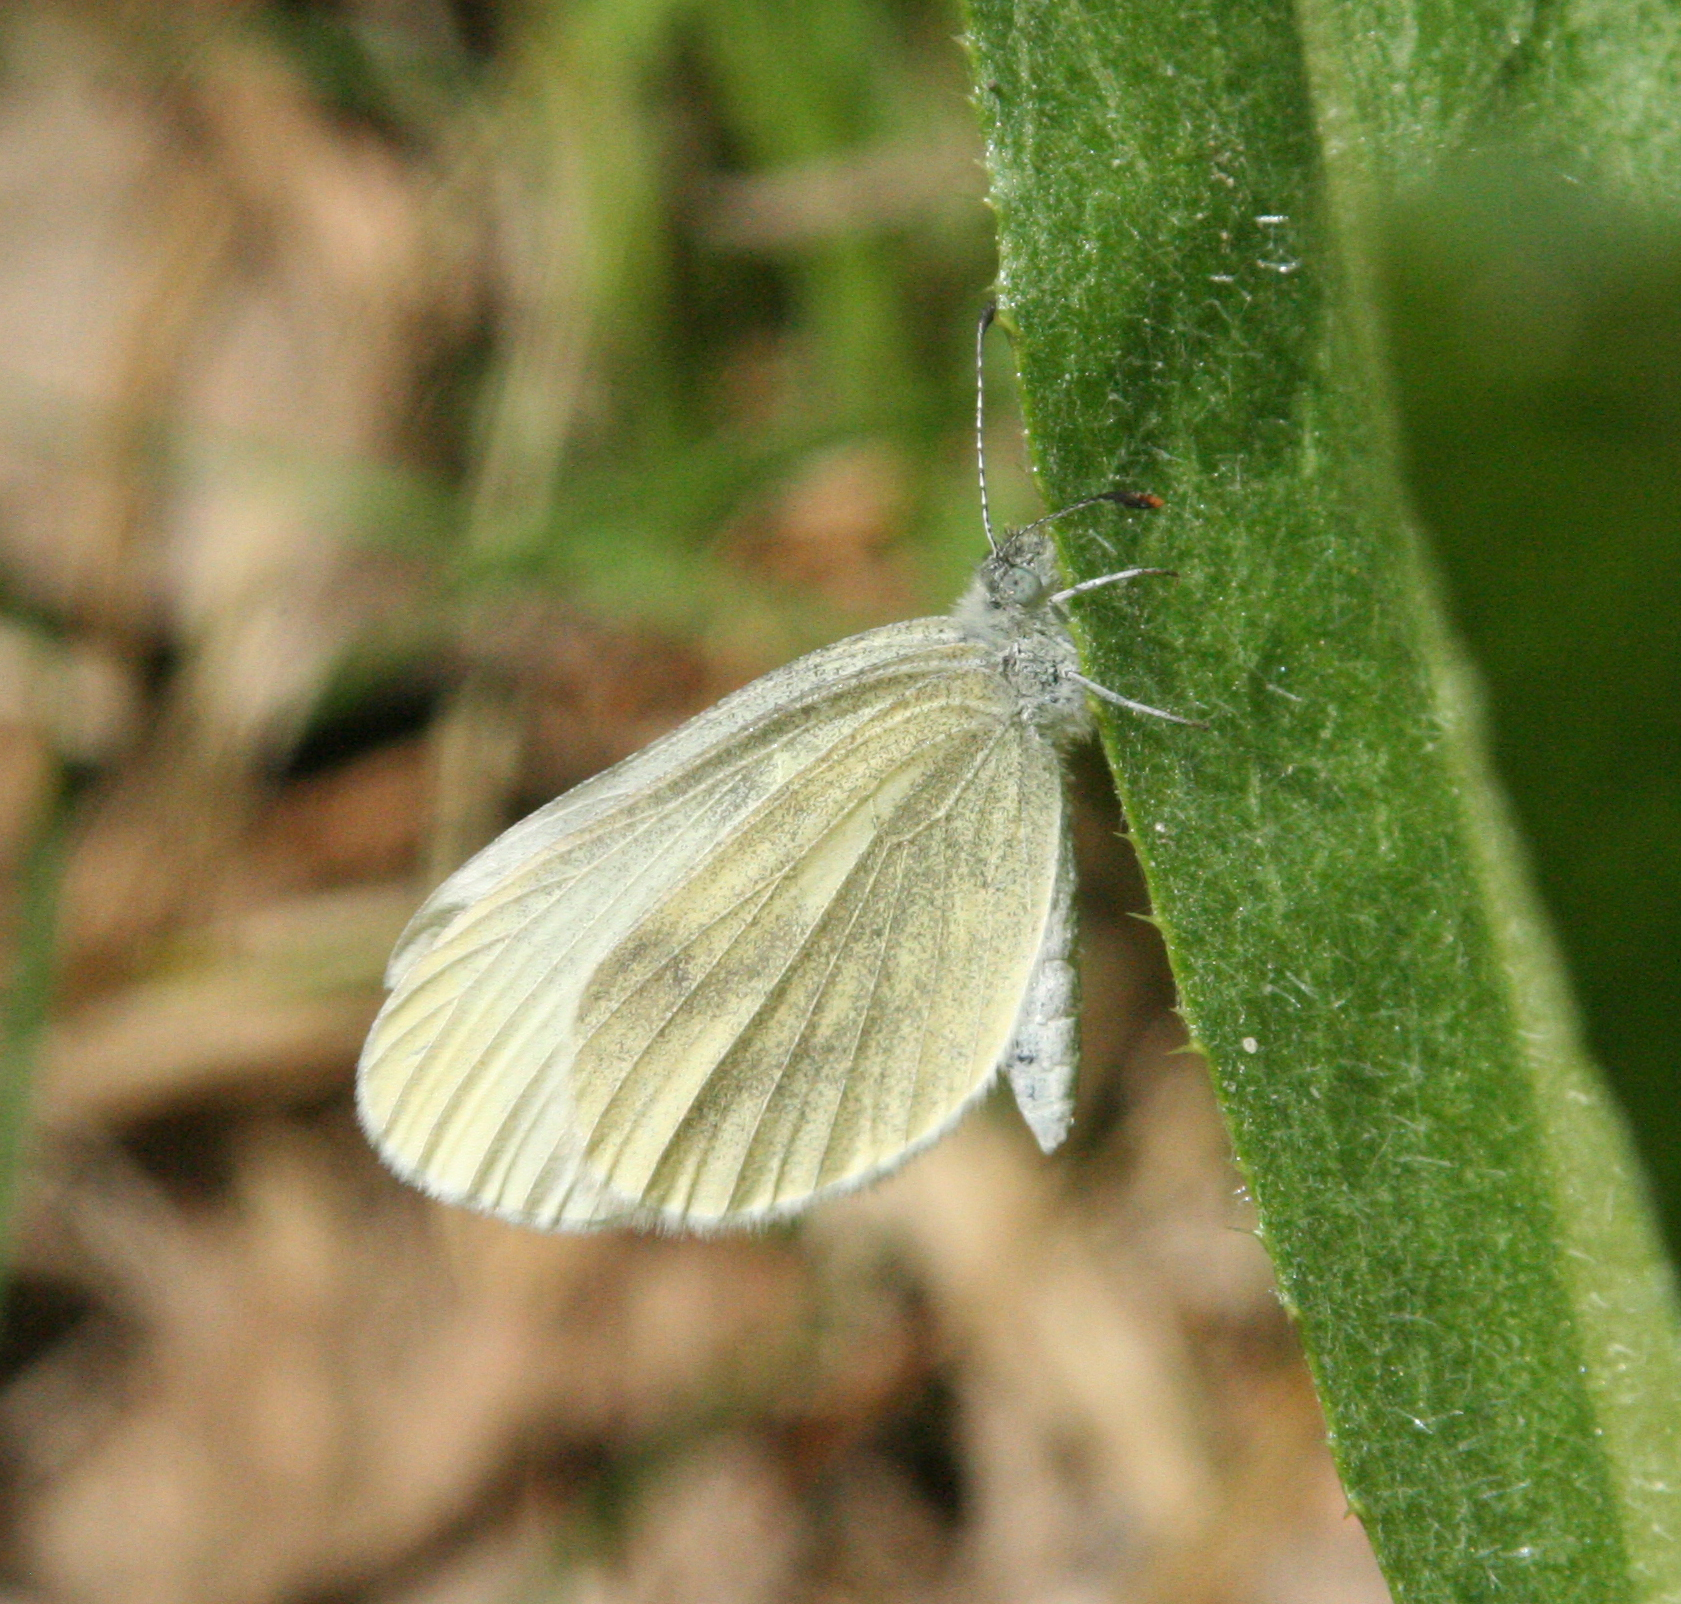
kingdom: Animalia
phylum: Arthropoda
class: Insecta
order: Lepidoptera
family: Pieridae
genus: Leptidea
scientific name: Leptidea
